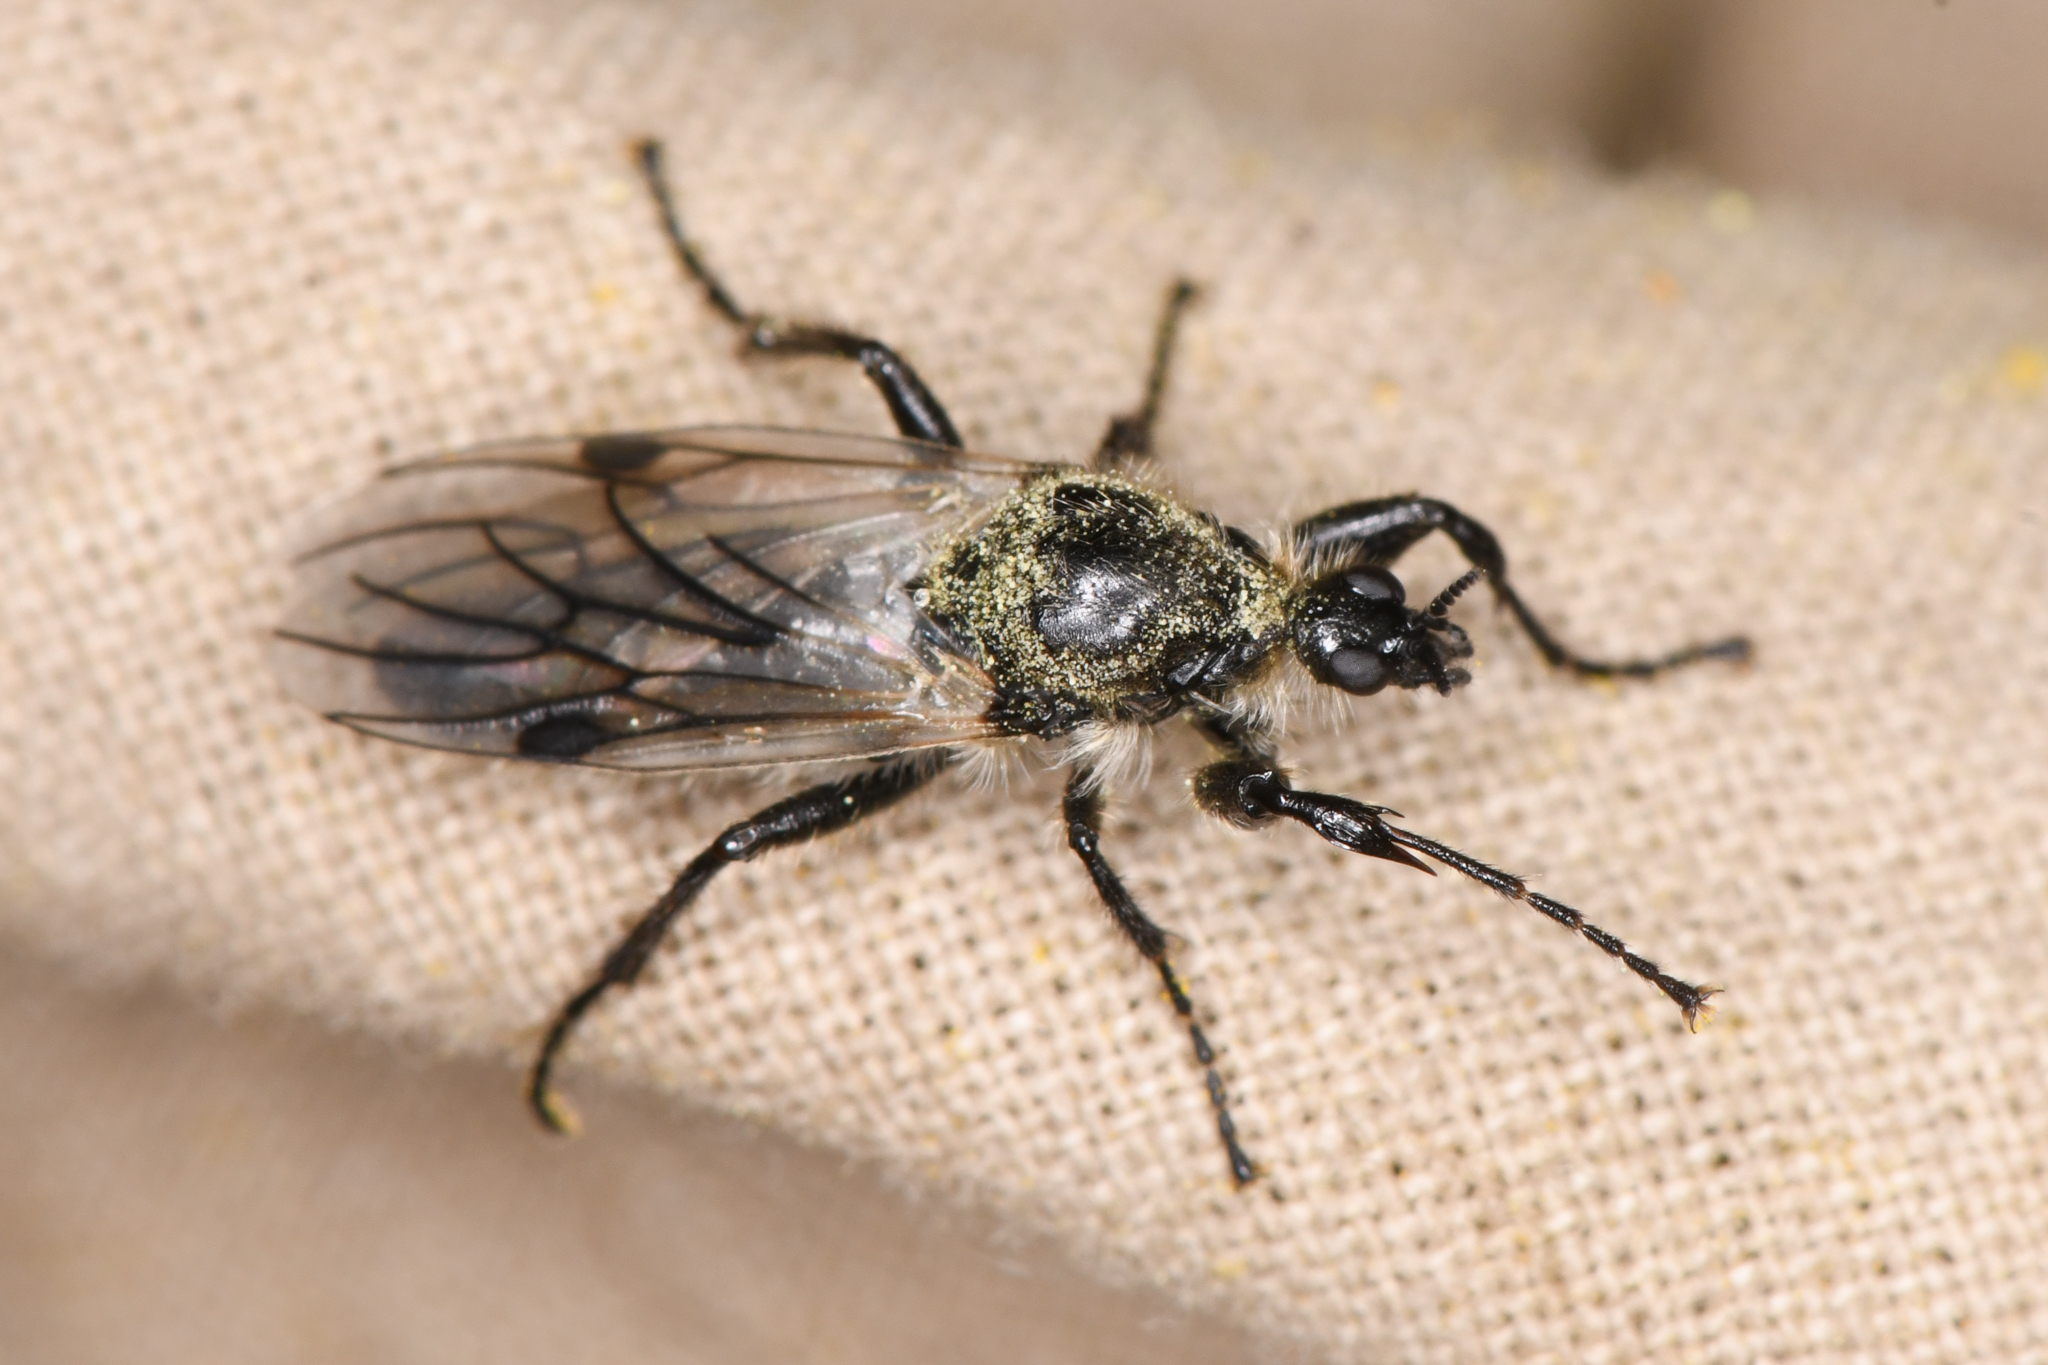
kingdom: Animalia
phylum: Arthropoda
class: Insecta
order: Diptera
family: Bibionidae
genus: Bibio
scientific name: Bibio albipennis
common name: White-winged march fly
